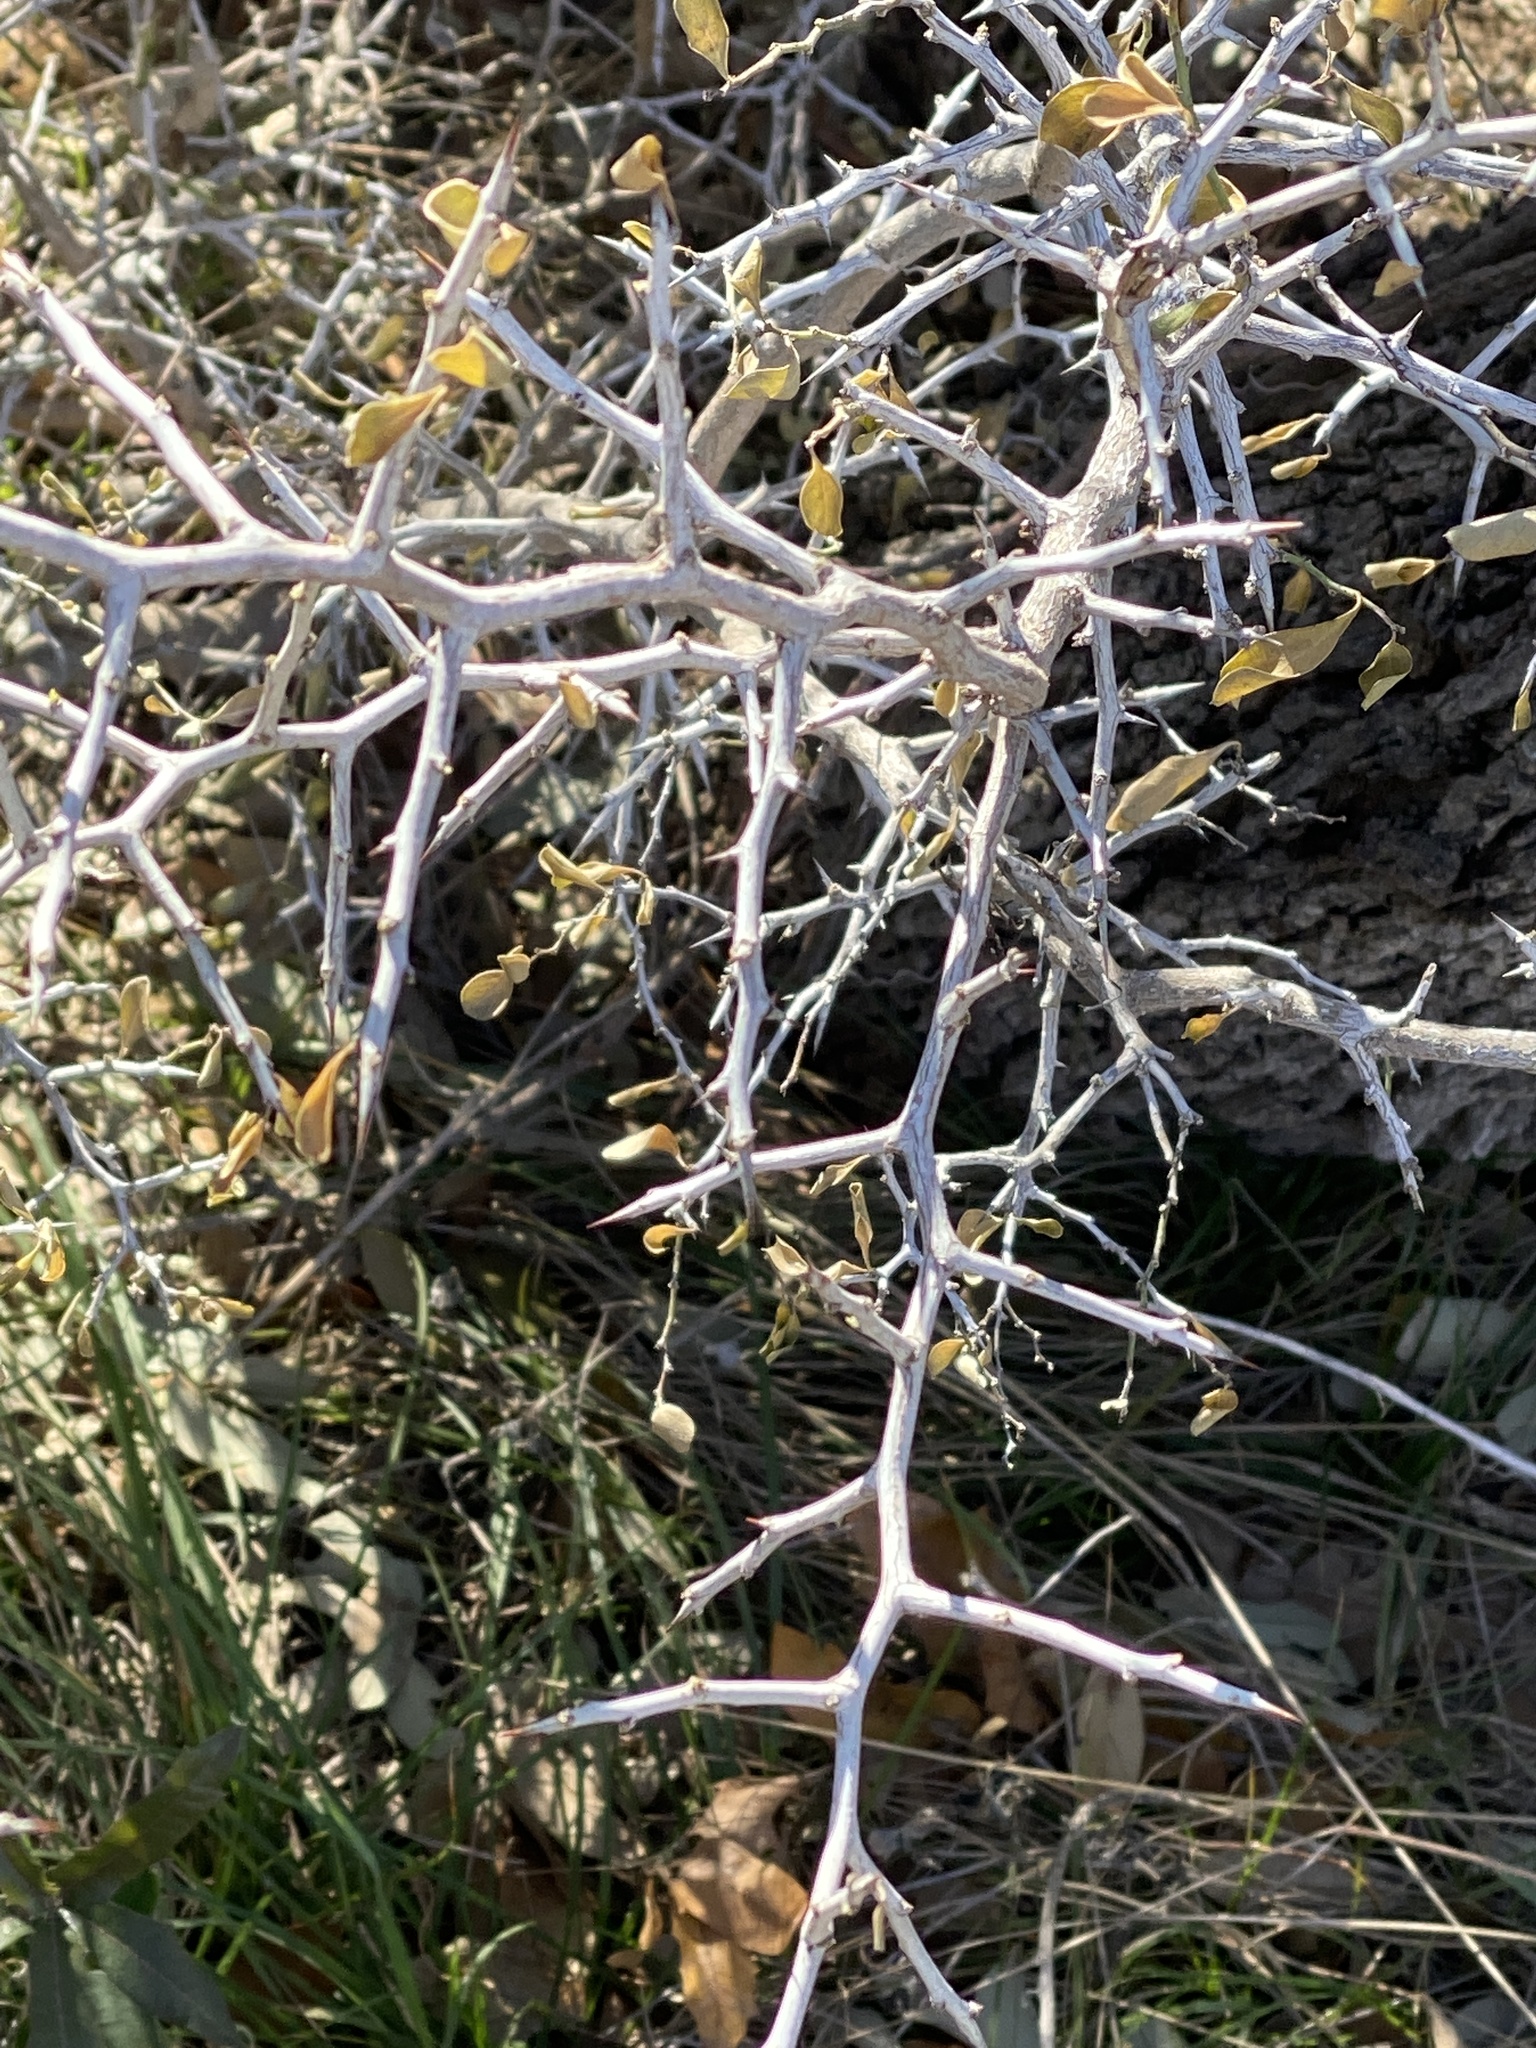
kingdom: Plantae
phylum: Tracheophyta
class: Magnoliopsida
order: Rosales
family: Rhamnaceae
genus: Condalia
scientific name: Condalia hookeri
